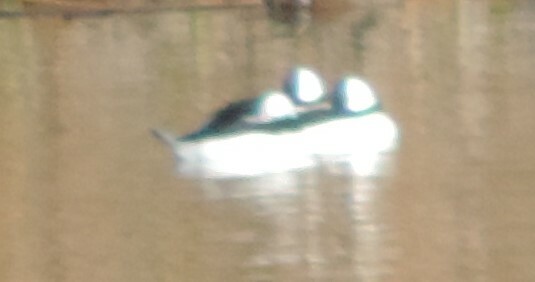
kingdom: Animalia
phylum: Chordata
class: Aves
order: Anseriformes
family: Anatidae
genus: Bucephala
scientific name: Bucephala albeola
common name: Bufflehead
